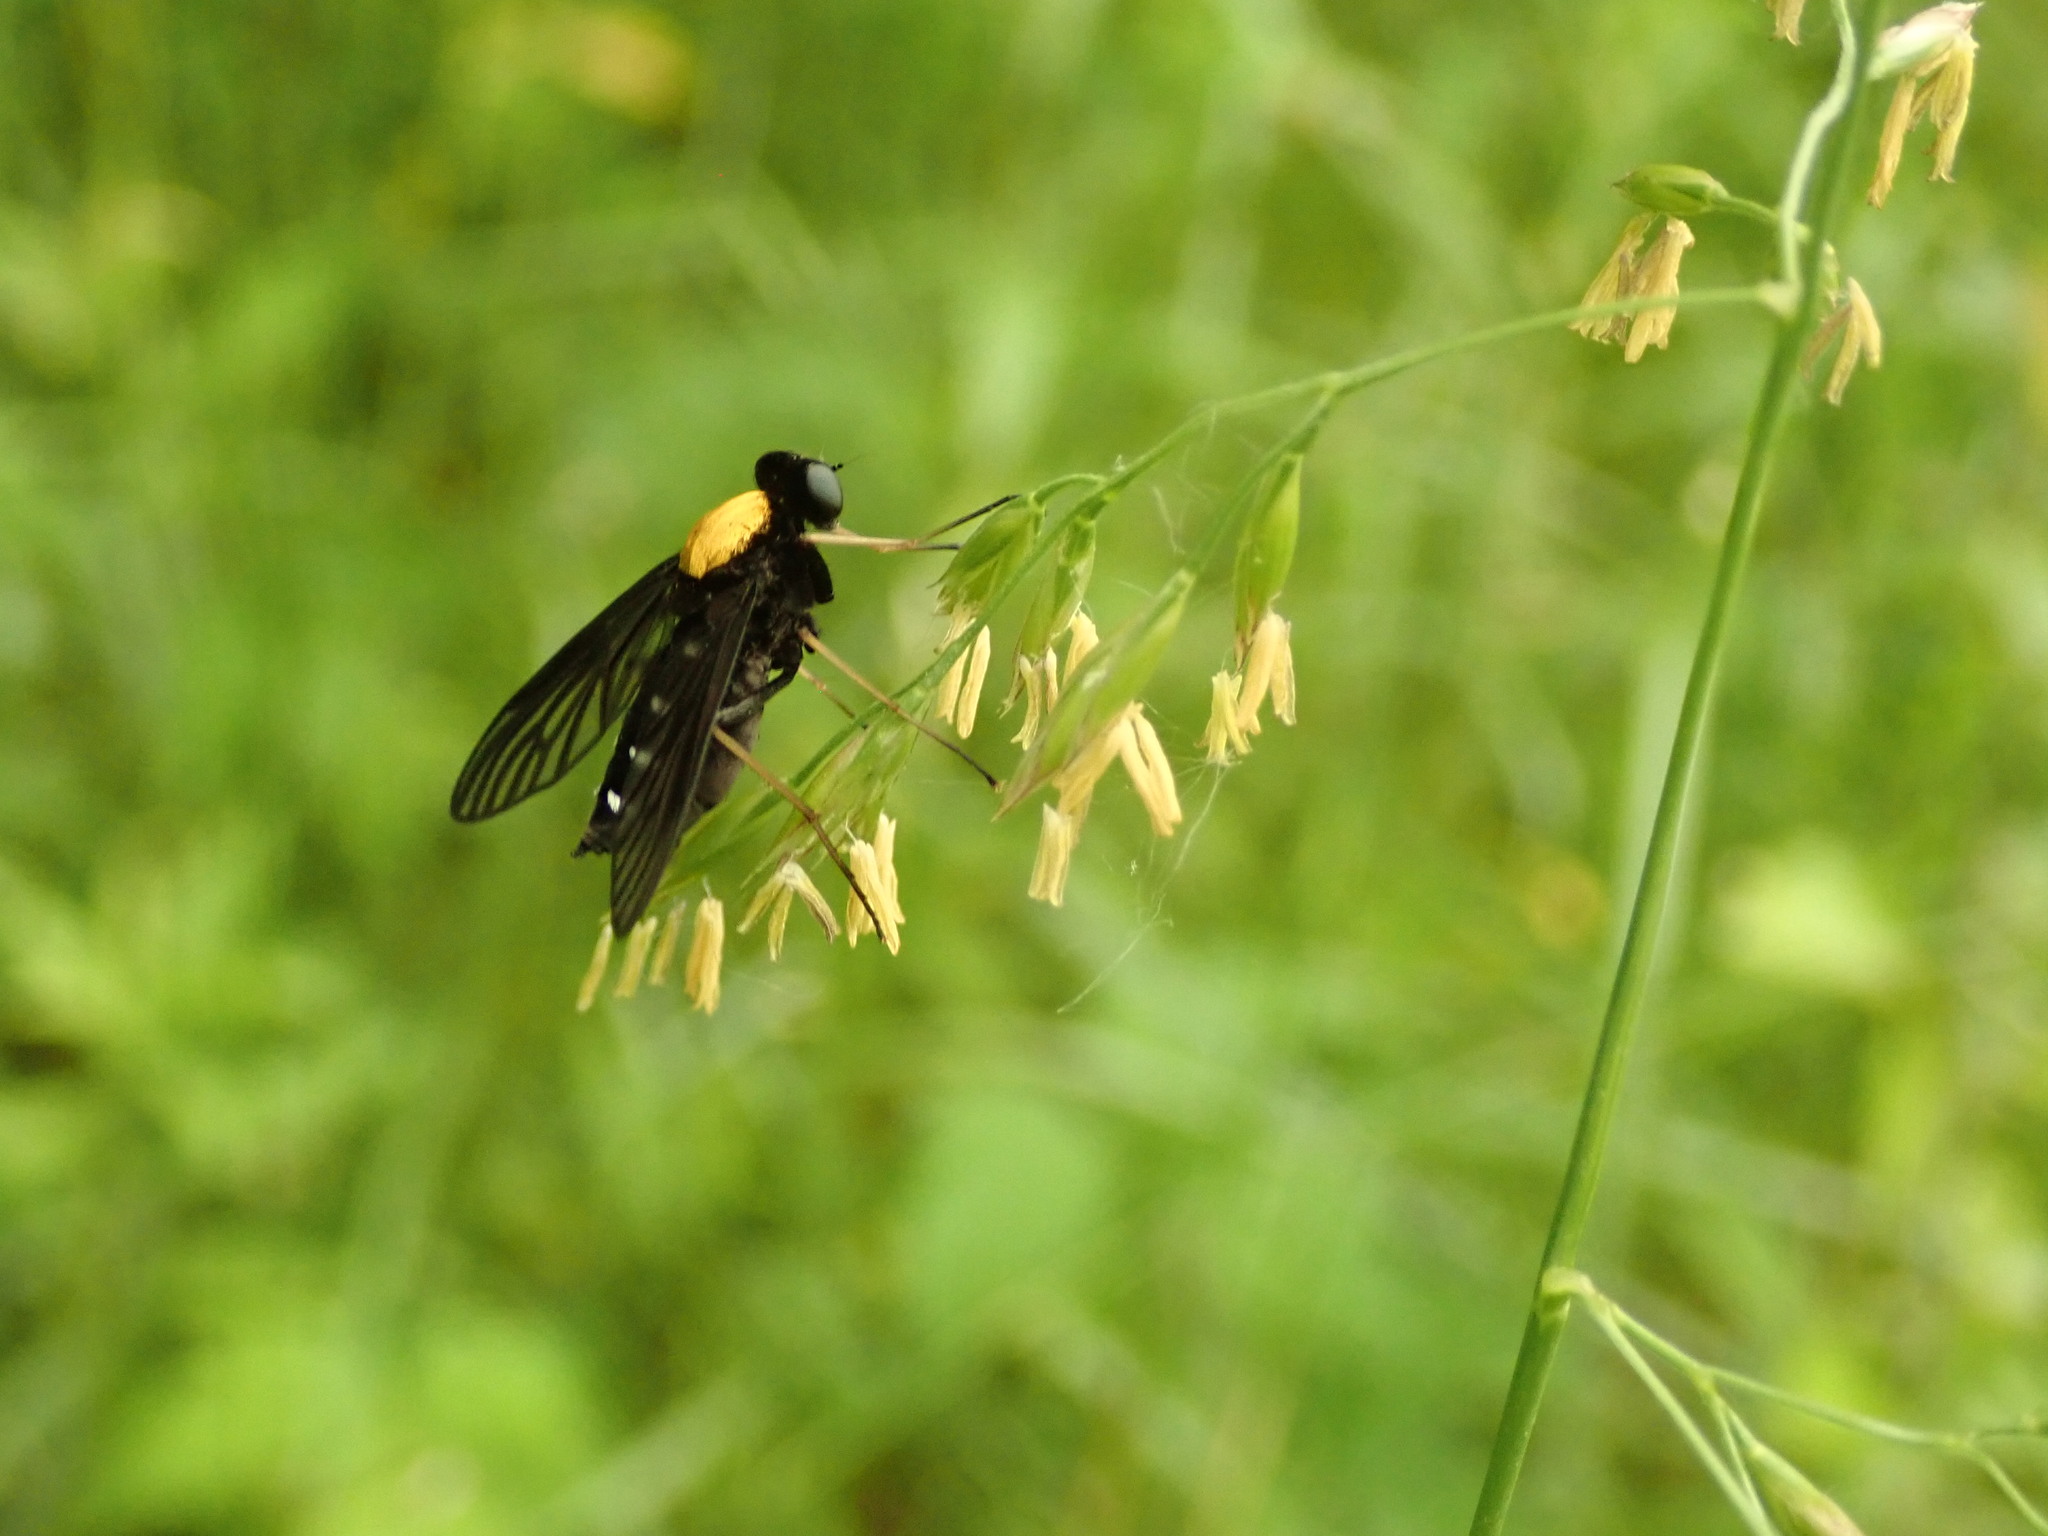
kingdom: Animalia
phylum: Arthropoda
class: Insecta
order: Diptera
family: Rhagionidae
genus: Chrysopilus
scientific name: Chrysopilus thoracicus
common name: Golden-backed snipe fly
